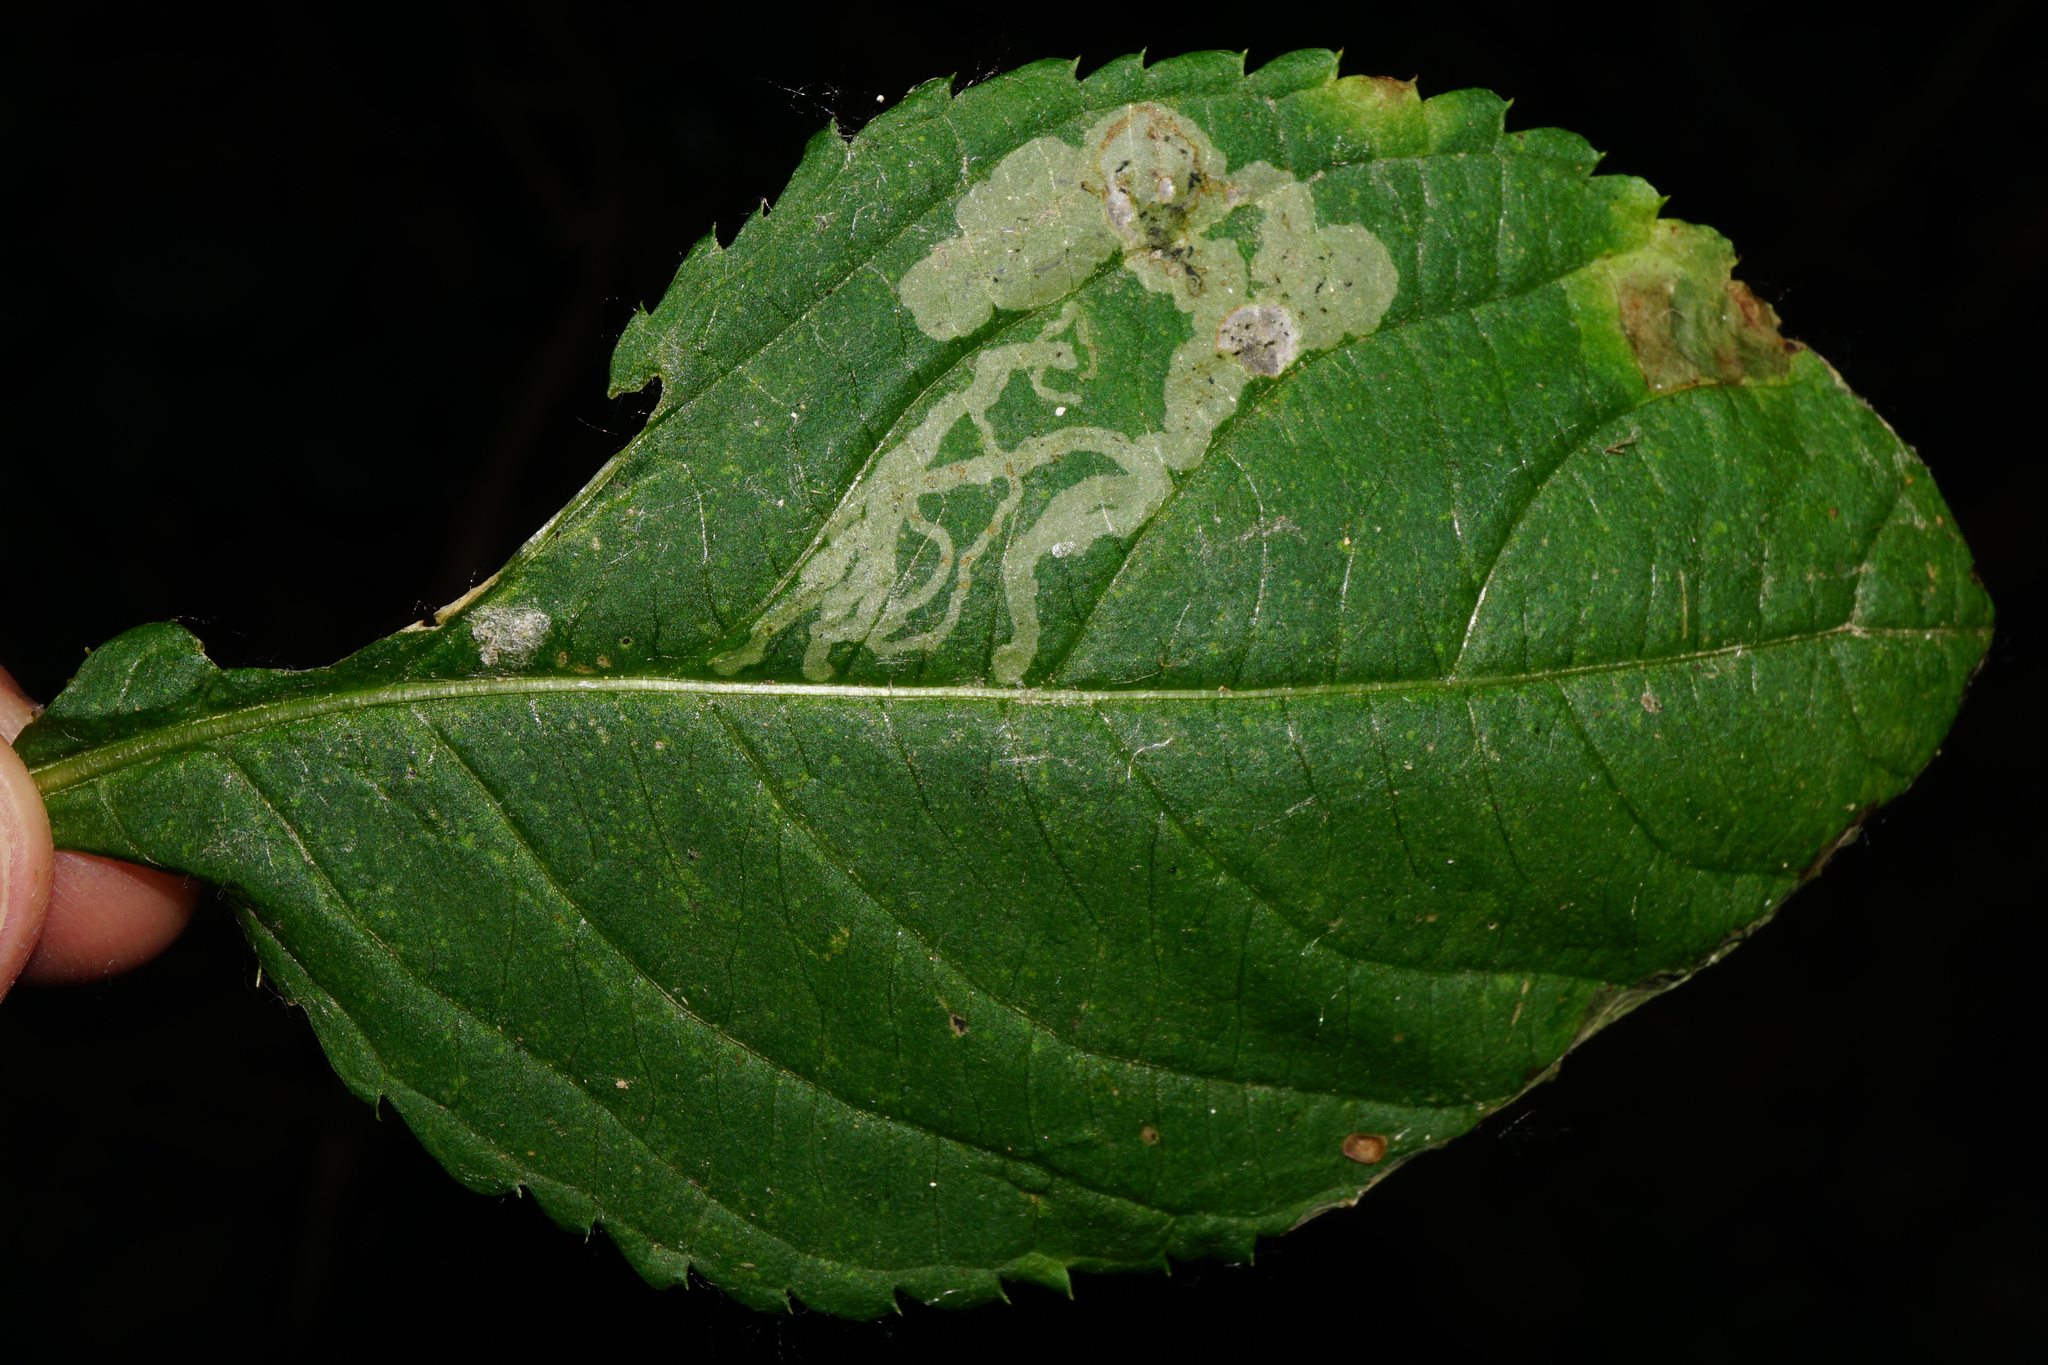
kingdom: Animalia
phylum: Arthropoda
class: Insecta
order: Diptera
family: Agromyzidae
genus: Phytoliriomyza
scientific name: Phytoliriomyza melampyga
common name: Jewelweed leaf-miner fly
